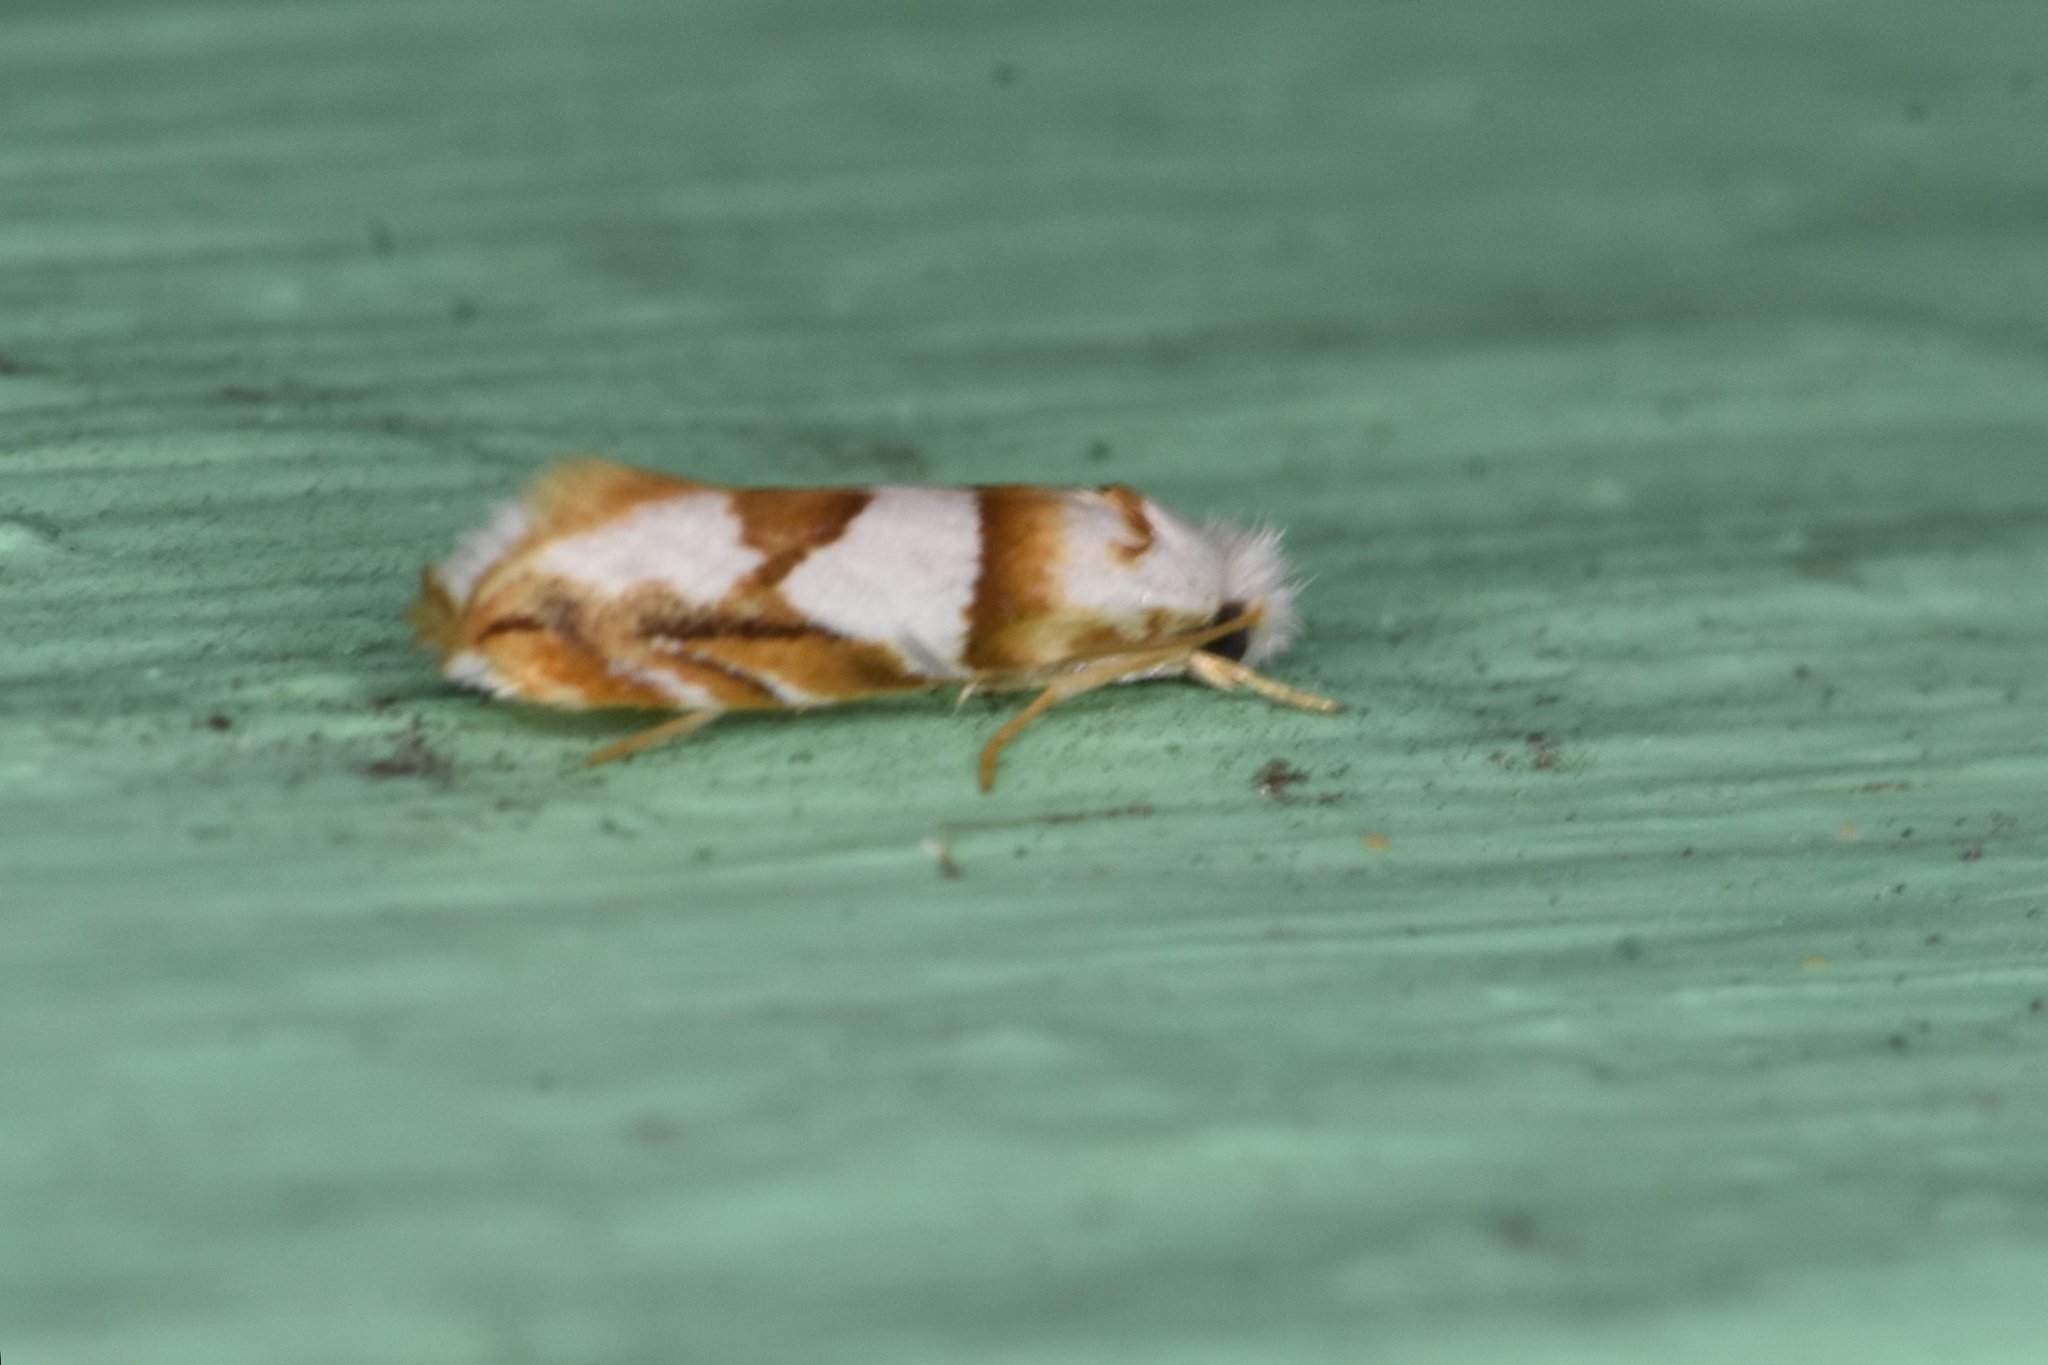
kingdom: Animalia
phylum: Arthropoda
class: Insecta
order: Lepidoptera
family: Meessiidae
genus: Pompostolella
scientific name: Pompostolella charipepla
